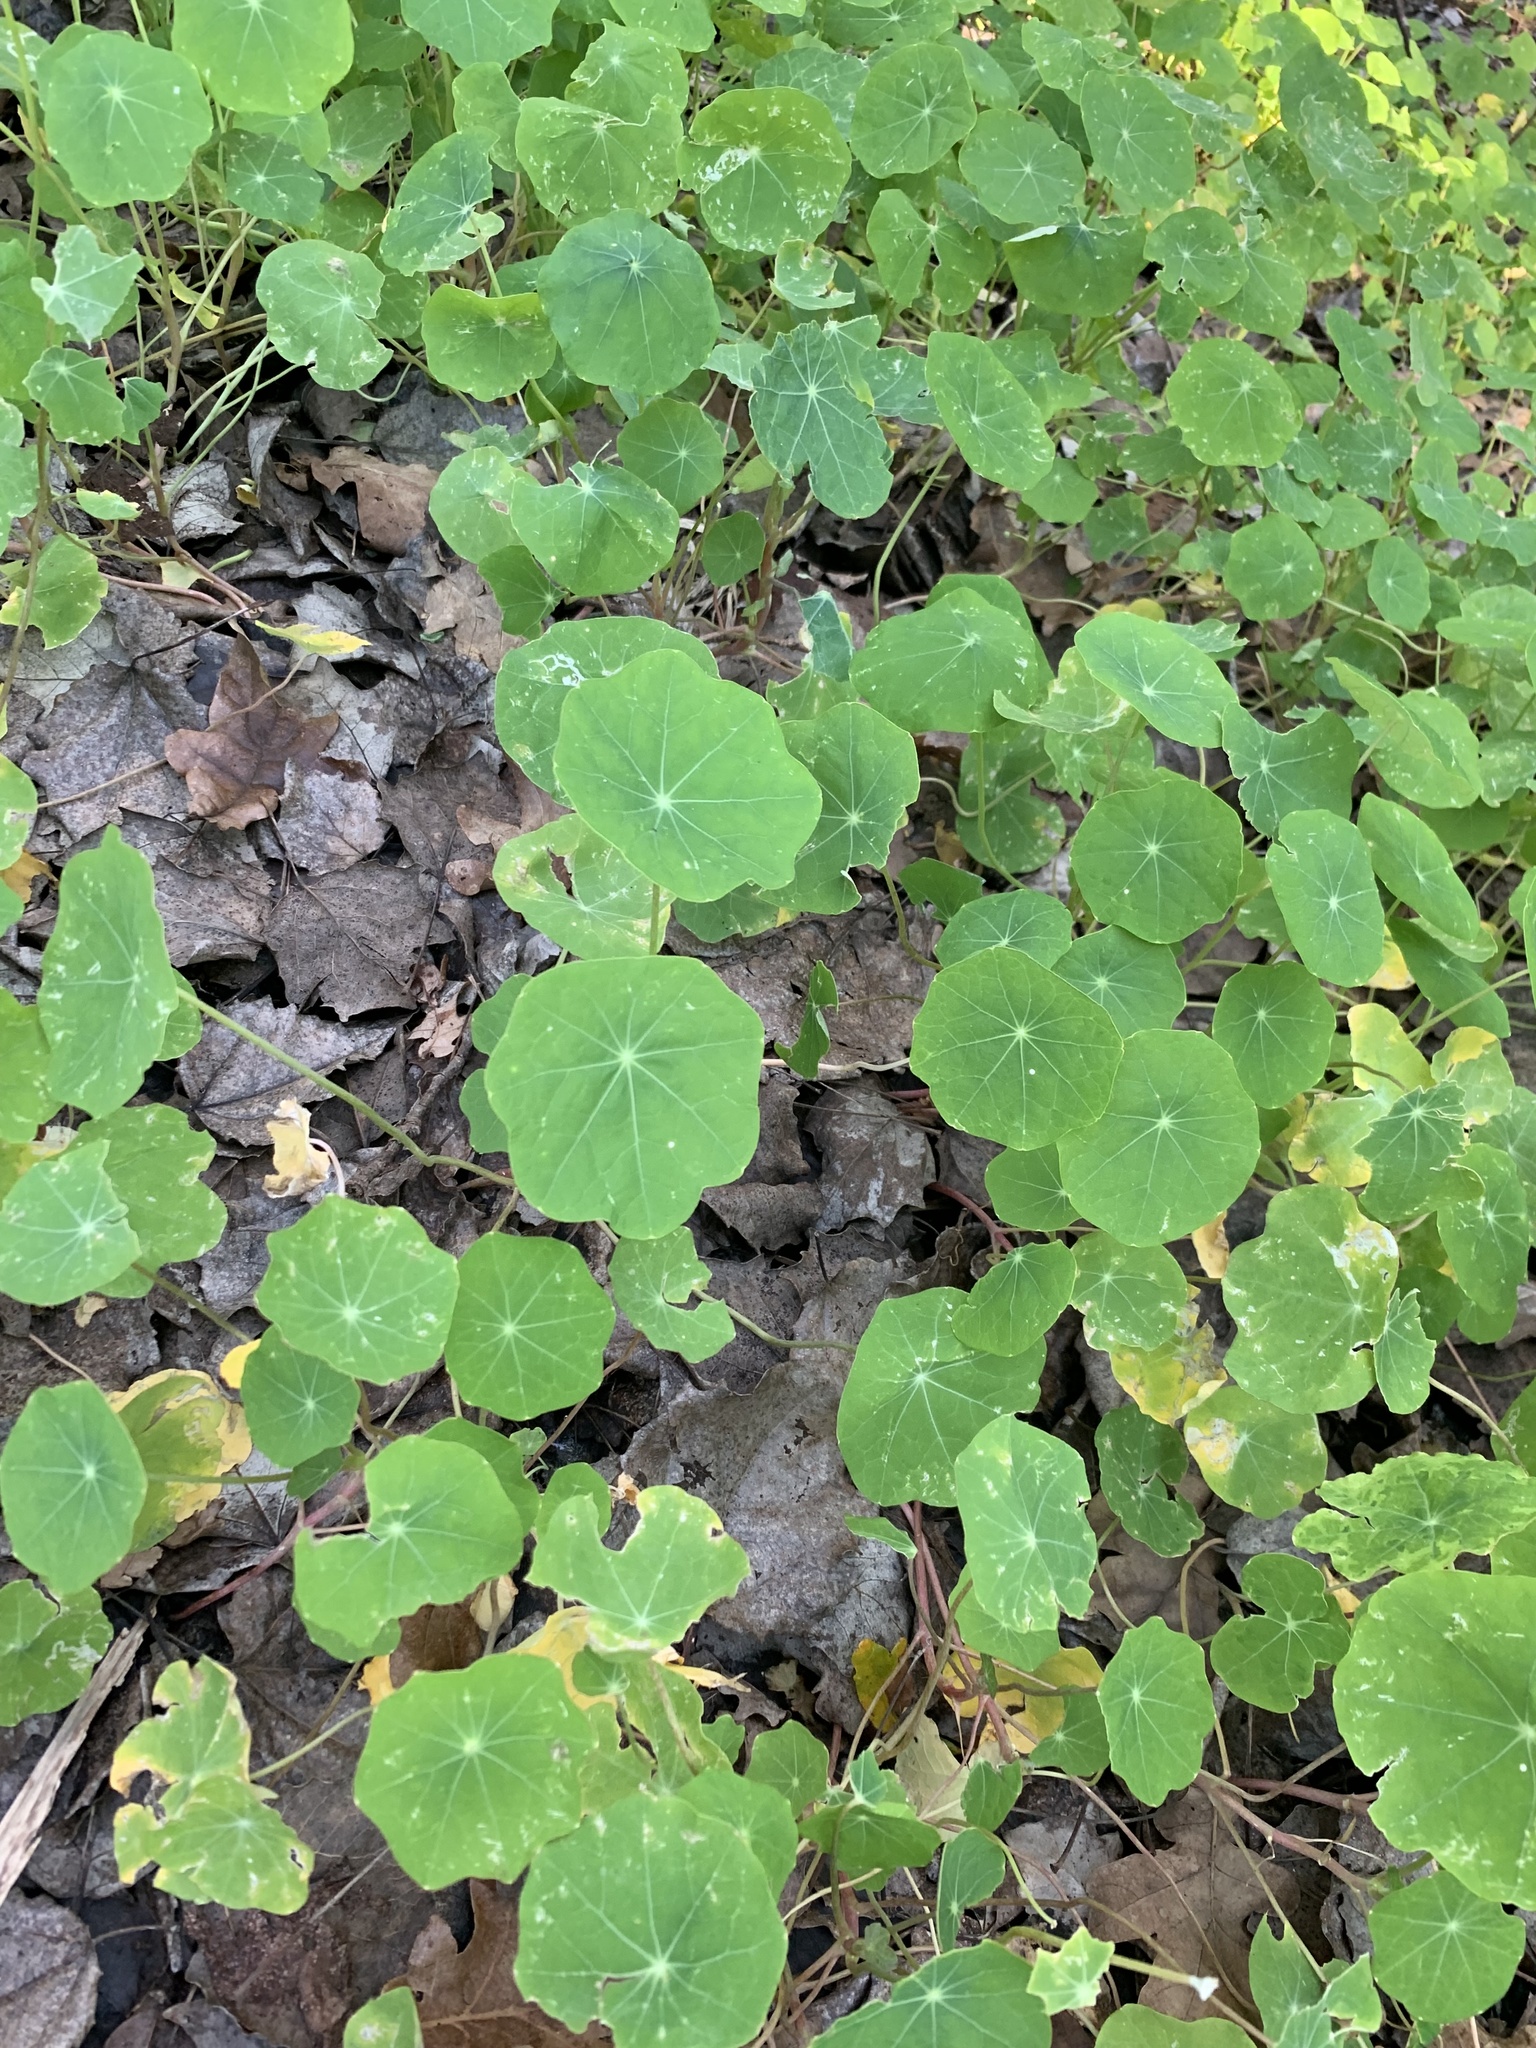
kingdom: Plantae
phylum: Tracheophyta
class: Magnoliopsida
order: Brassicales
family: Tropaeolaceae
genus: Tropaeolum
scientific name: Tropaeolum majus
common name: Nasturtium
